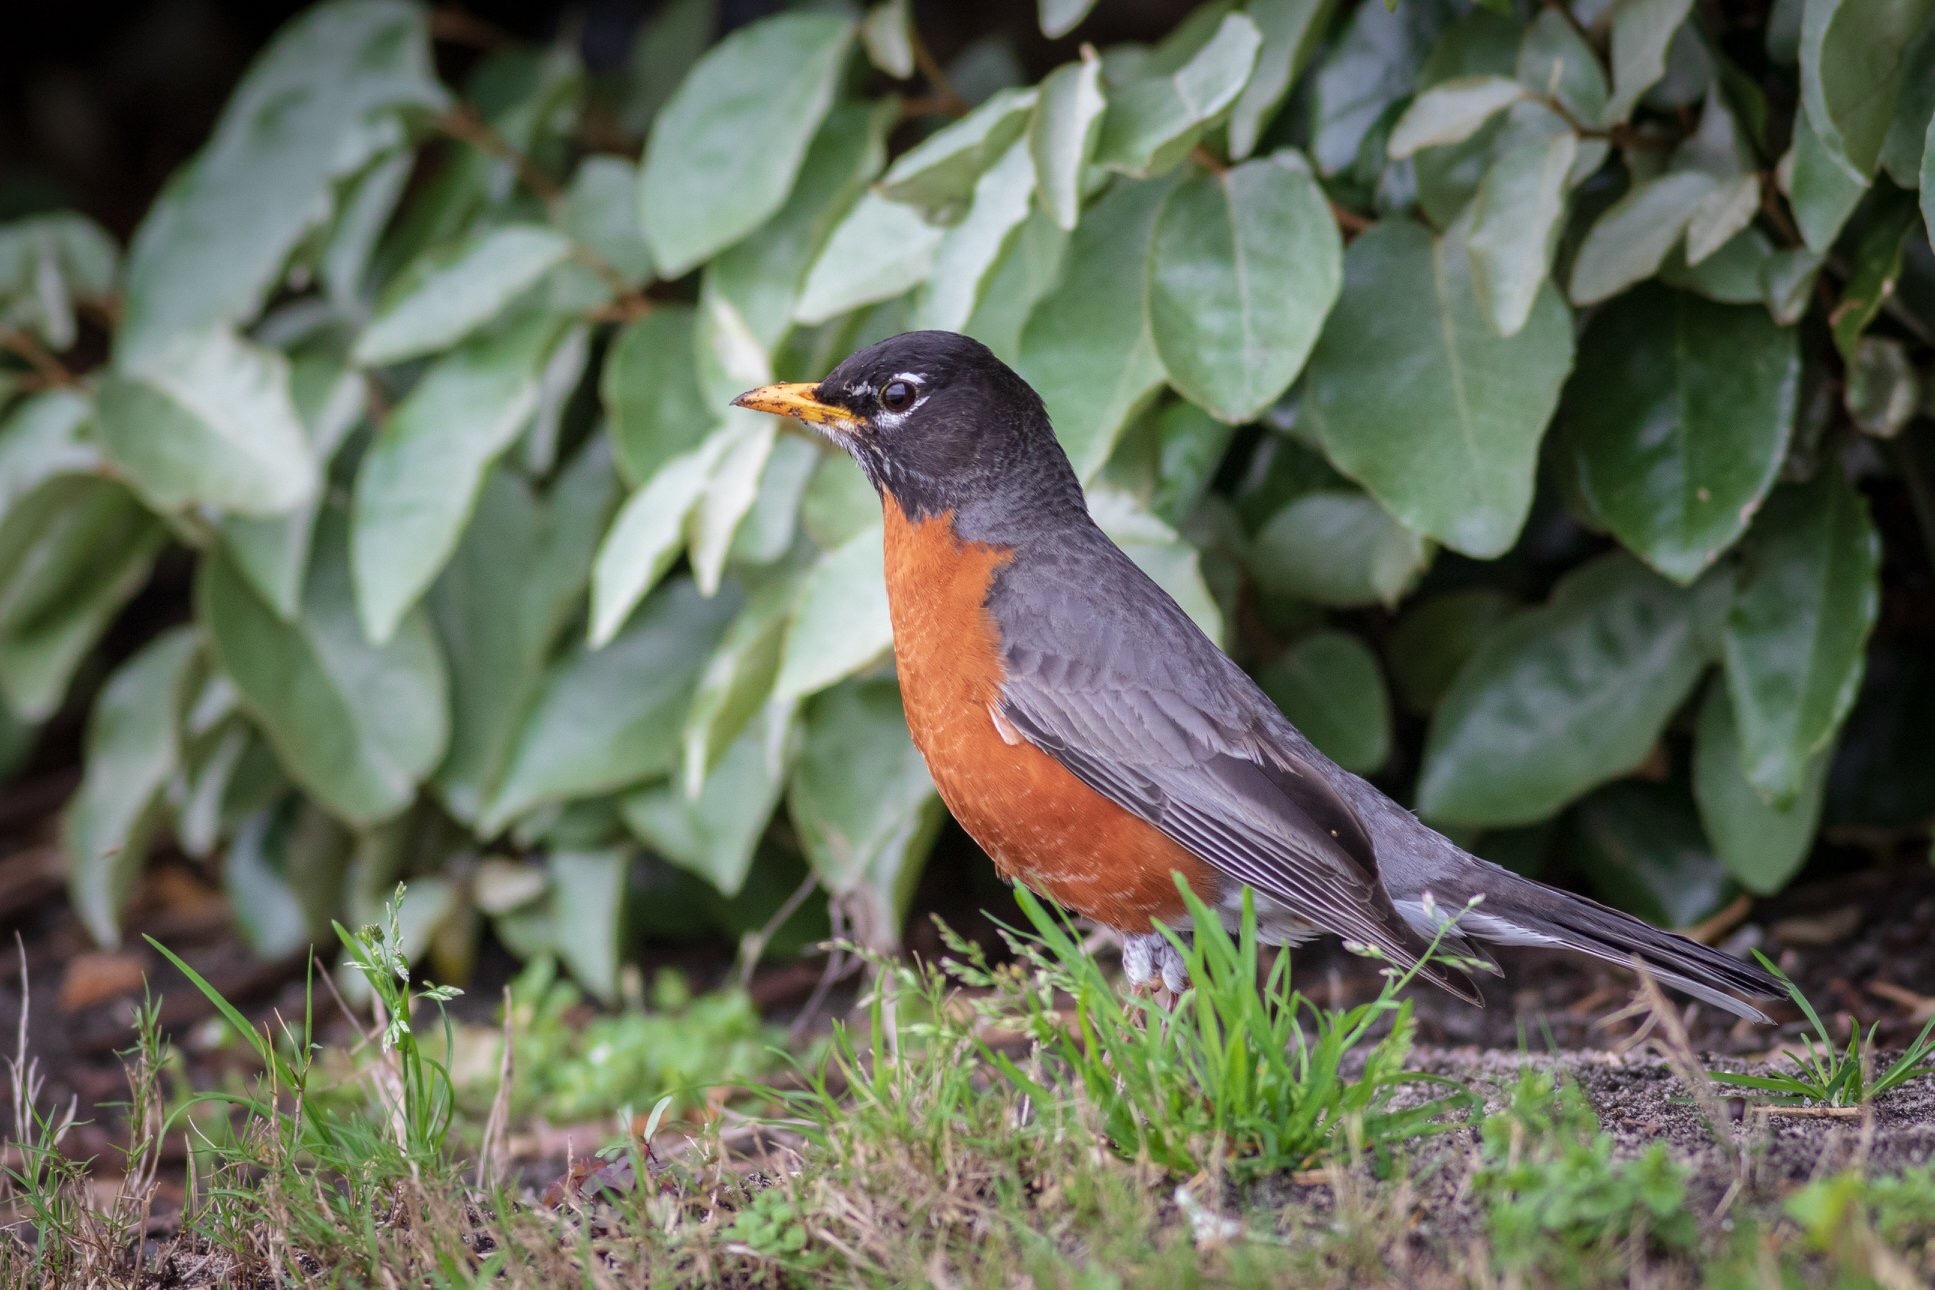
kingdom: Animalia
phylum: Chordata
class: Aves
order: Passeriformes
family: Turdidae
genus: Turdus
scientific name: Turdus migratorius
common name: American robin
